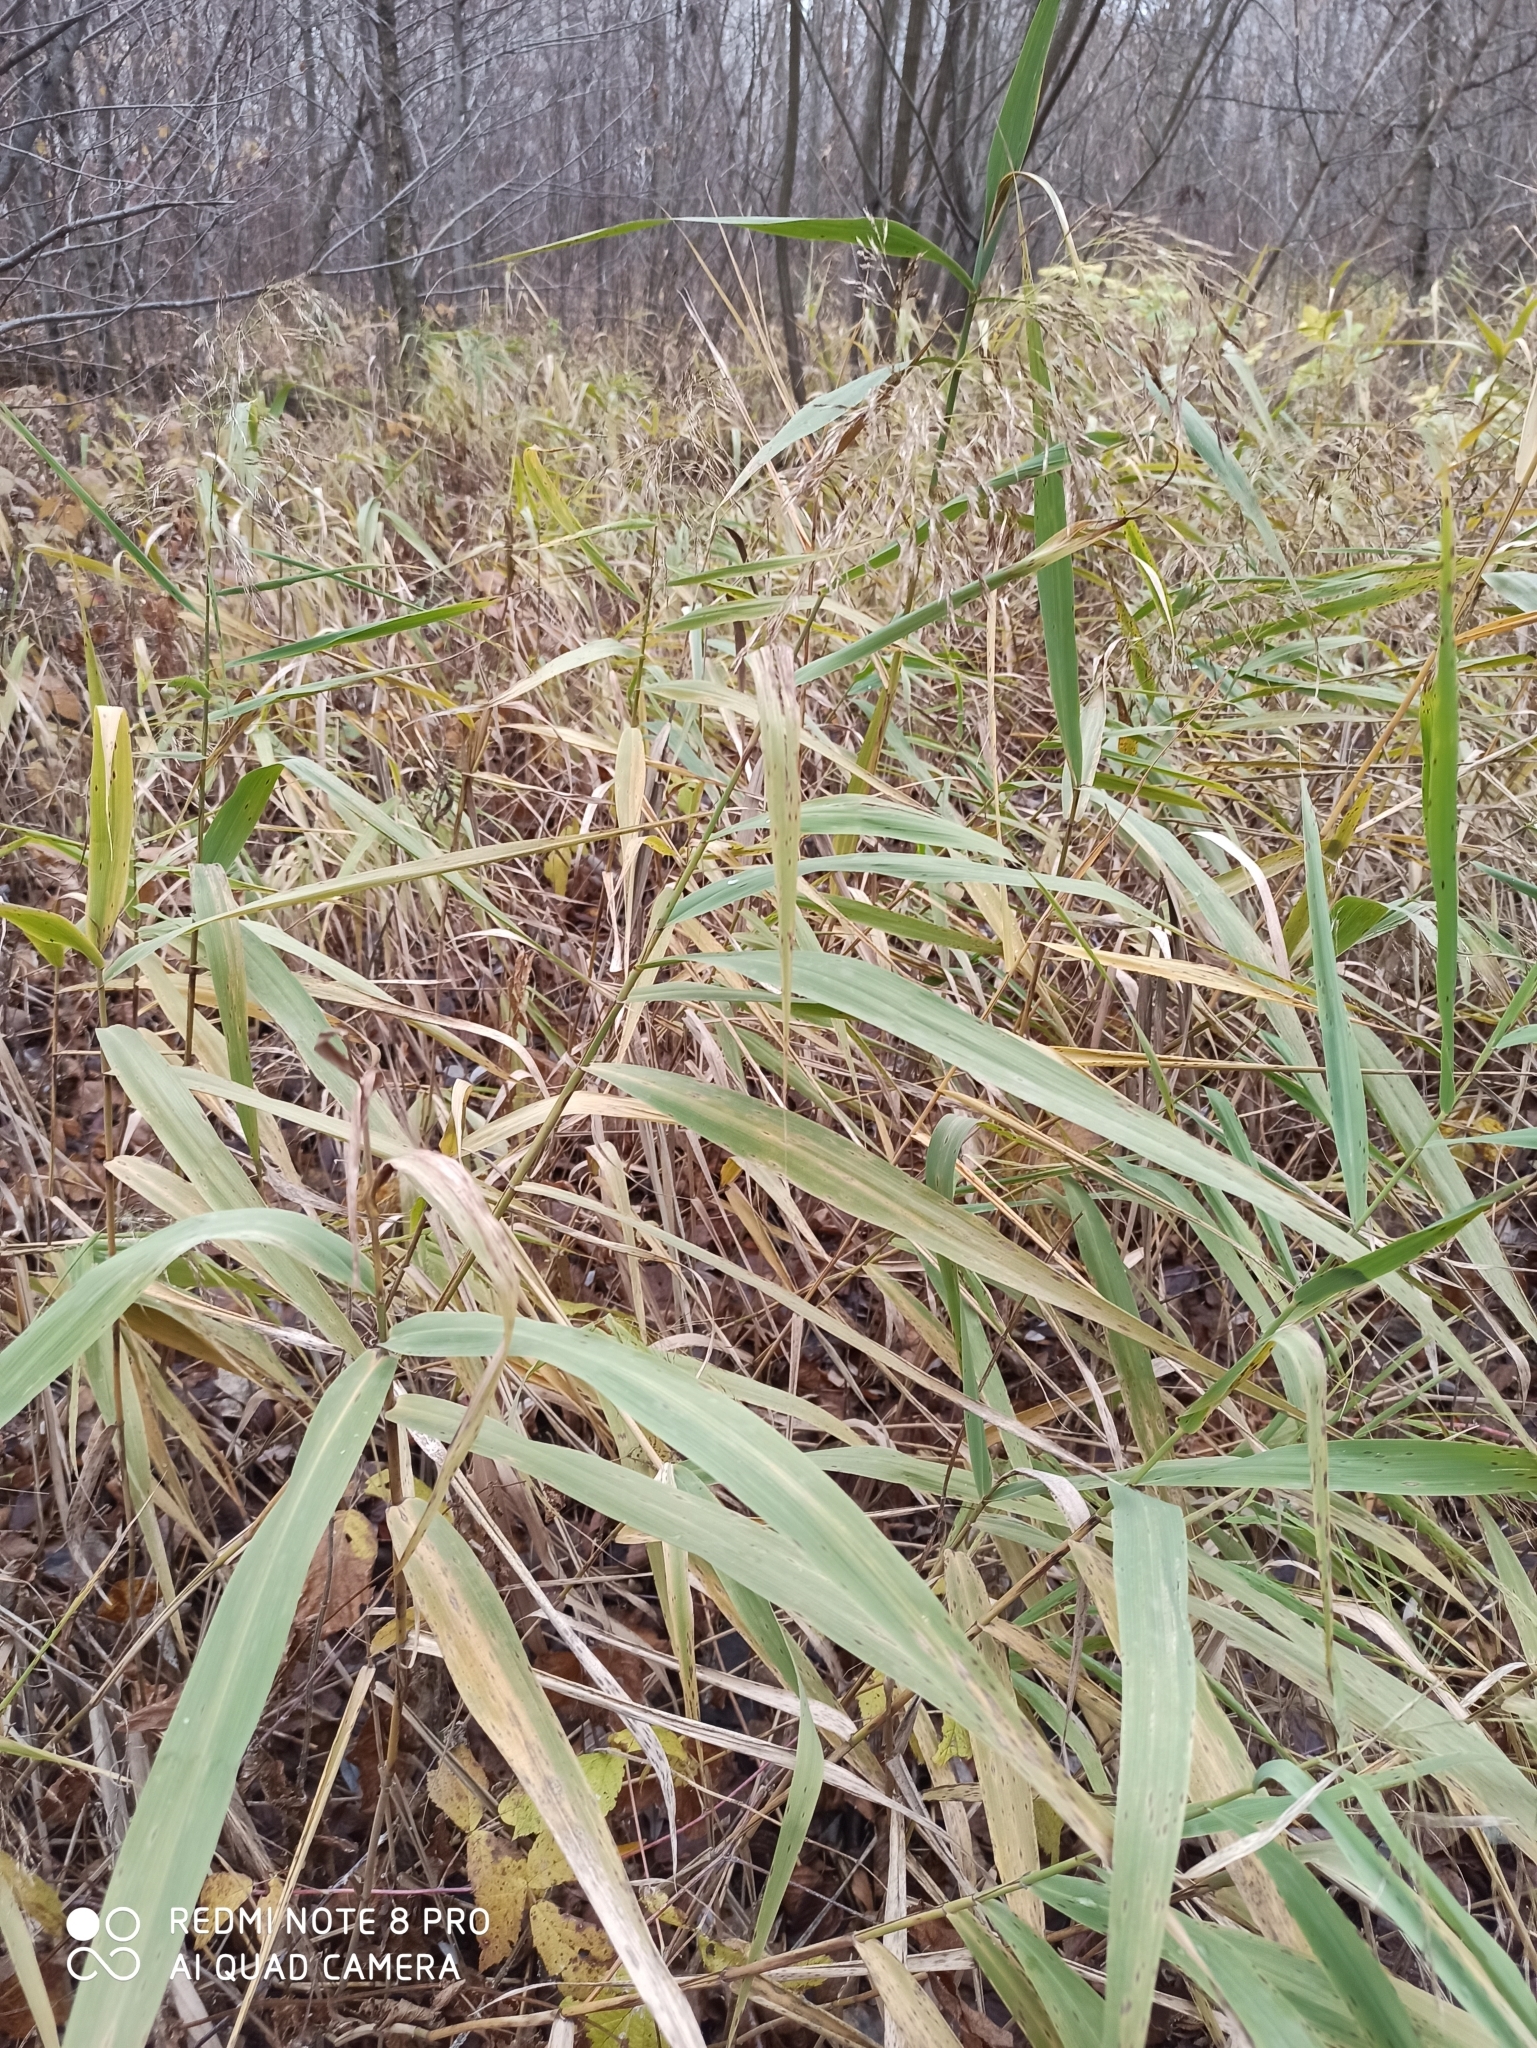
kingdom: Plantae
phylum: Tracheophyta
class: Liliopsida
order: Poales
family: Poaceae
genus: Phragmites
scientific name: Phragmites australis
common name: Common reed
